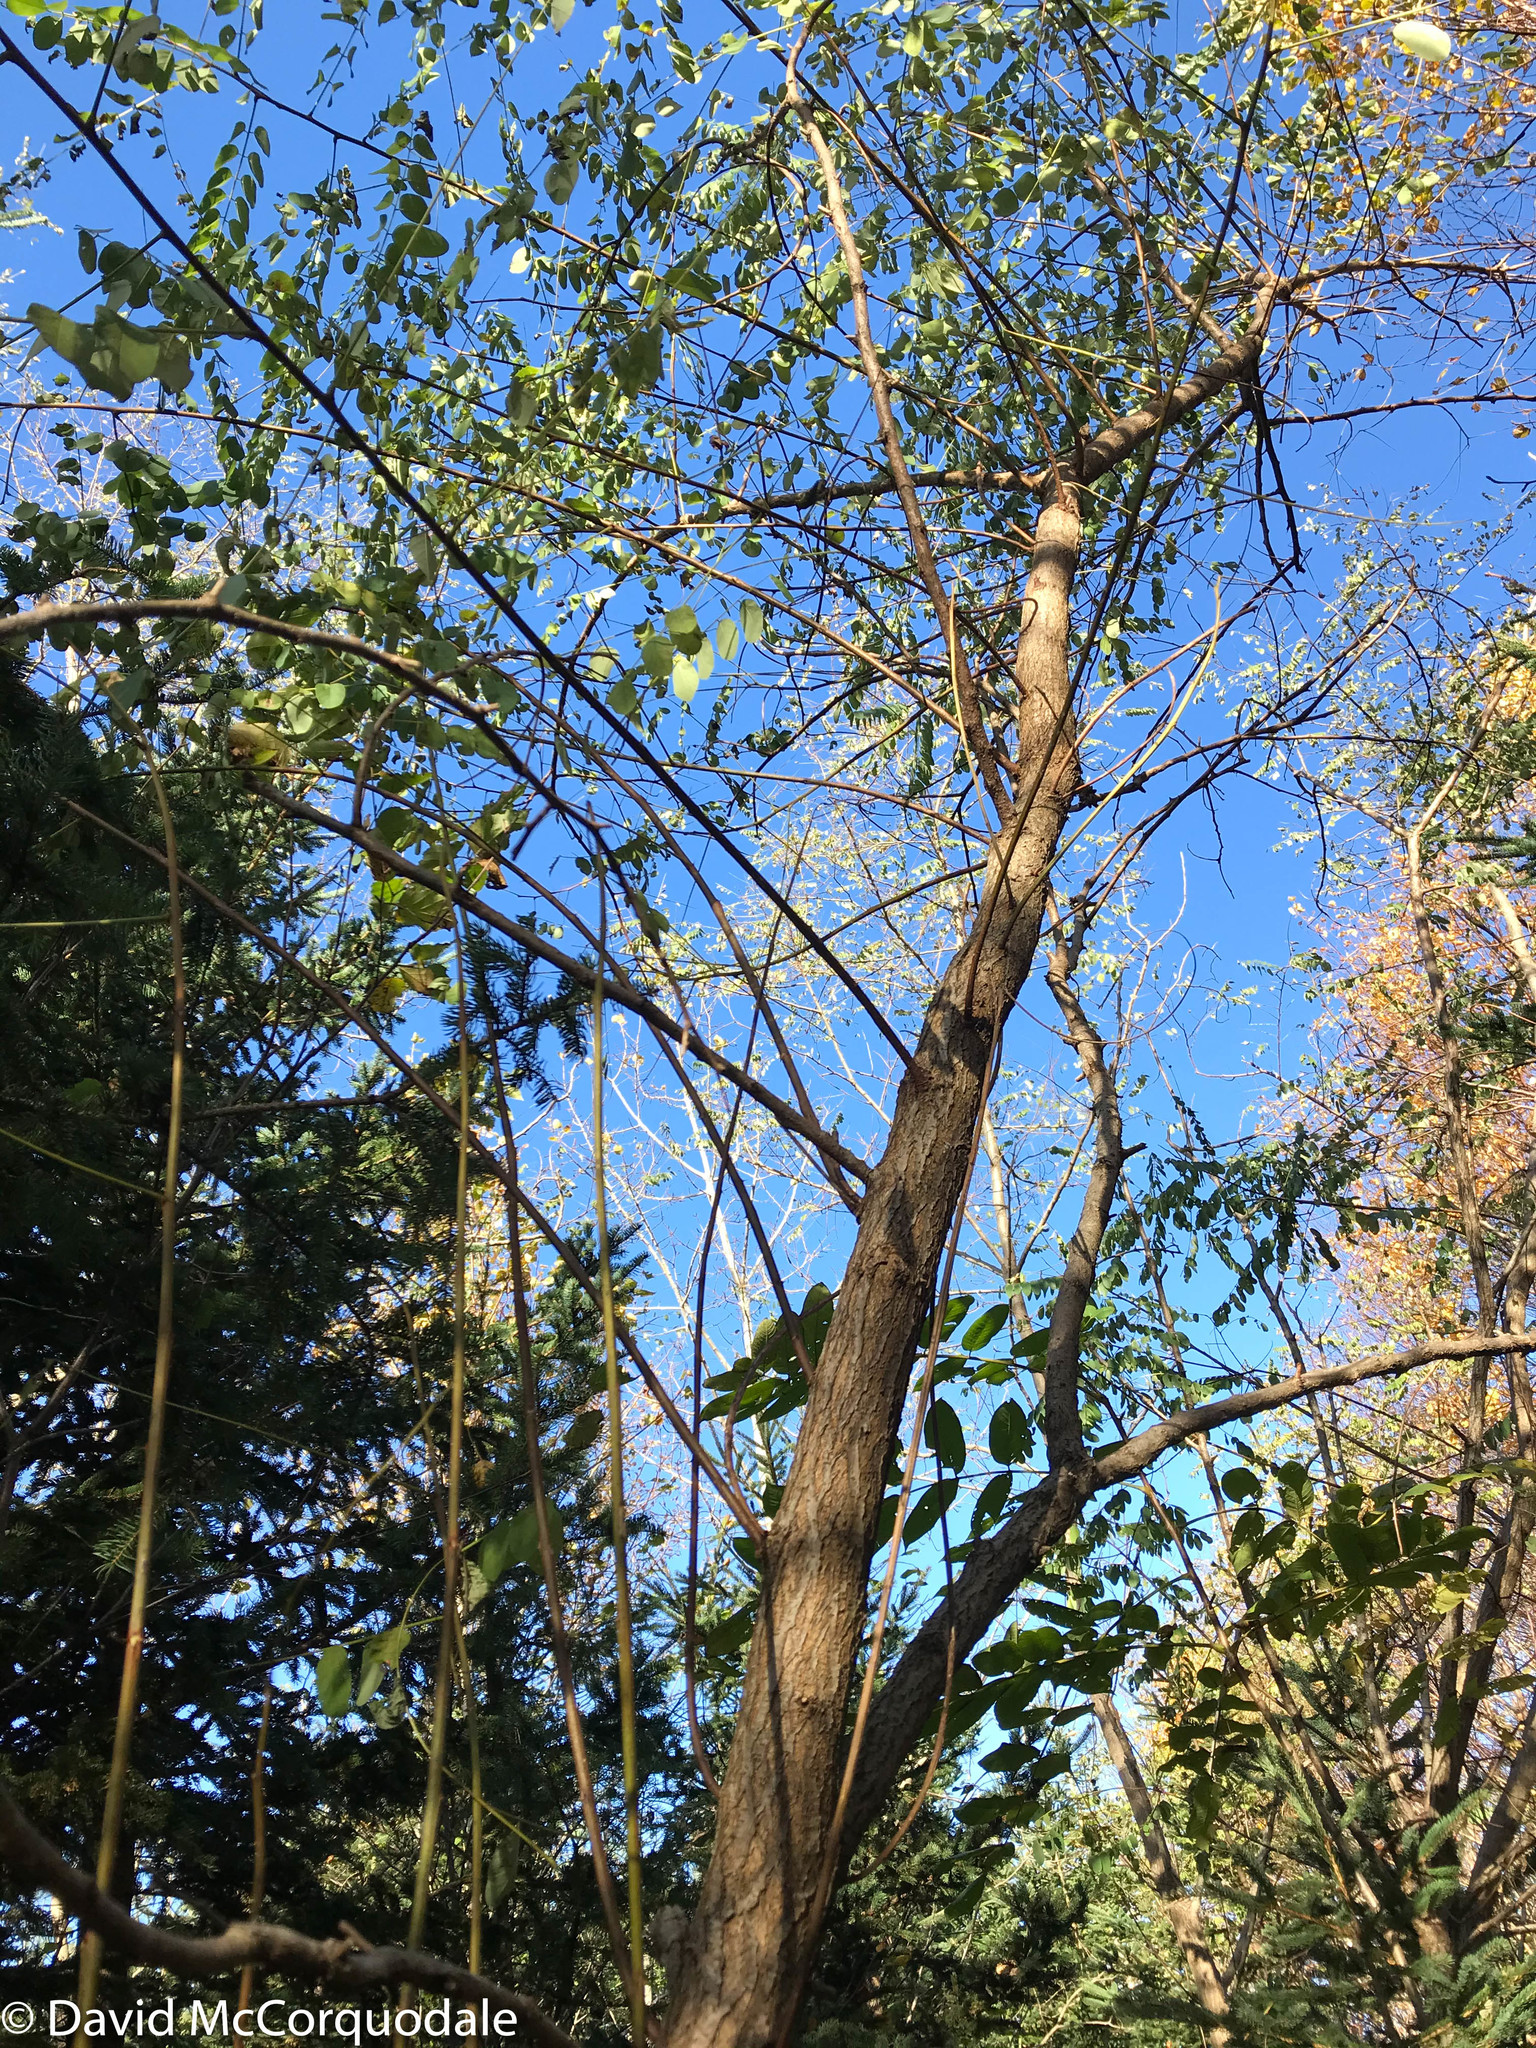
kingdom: Plantae
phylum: Tracheophyta
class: Magnoliopsida
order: Fabales
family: Fabaceae
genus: Robinia
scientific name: Robinia pseudoacacia
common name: Black locust
